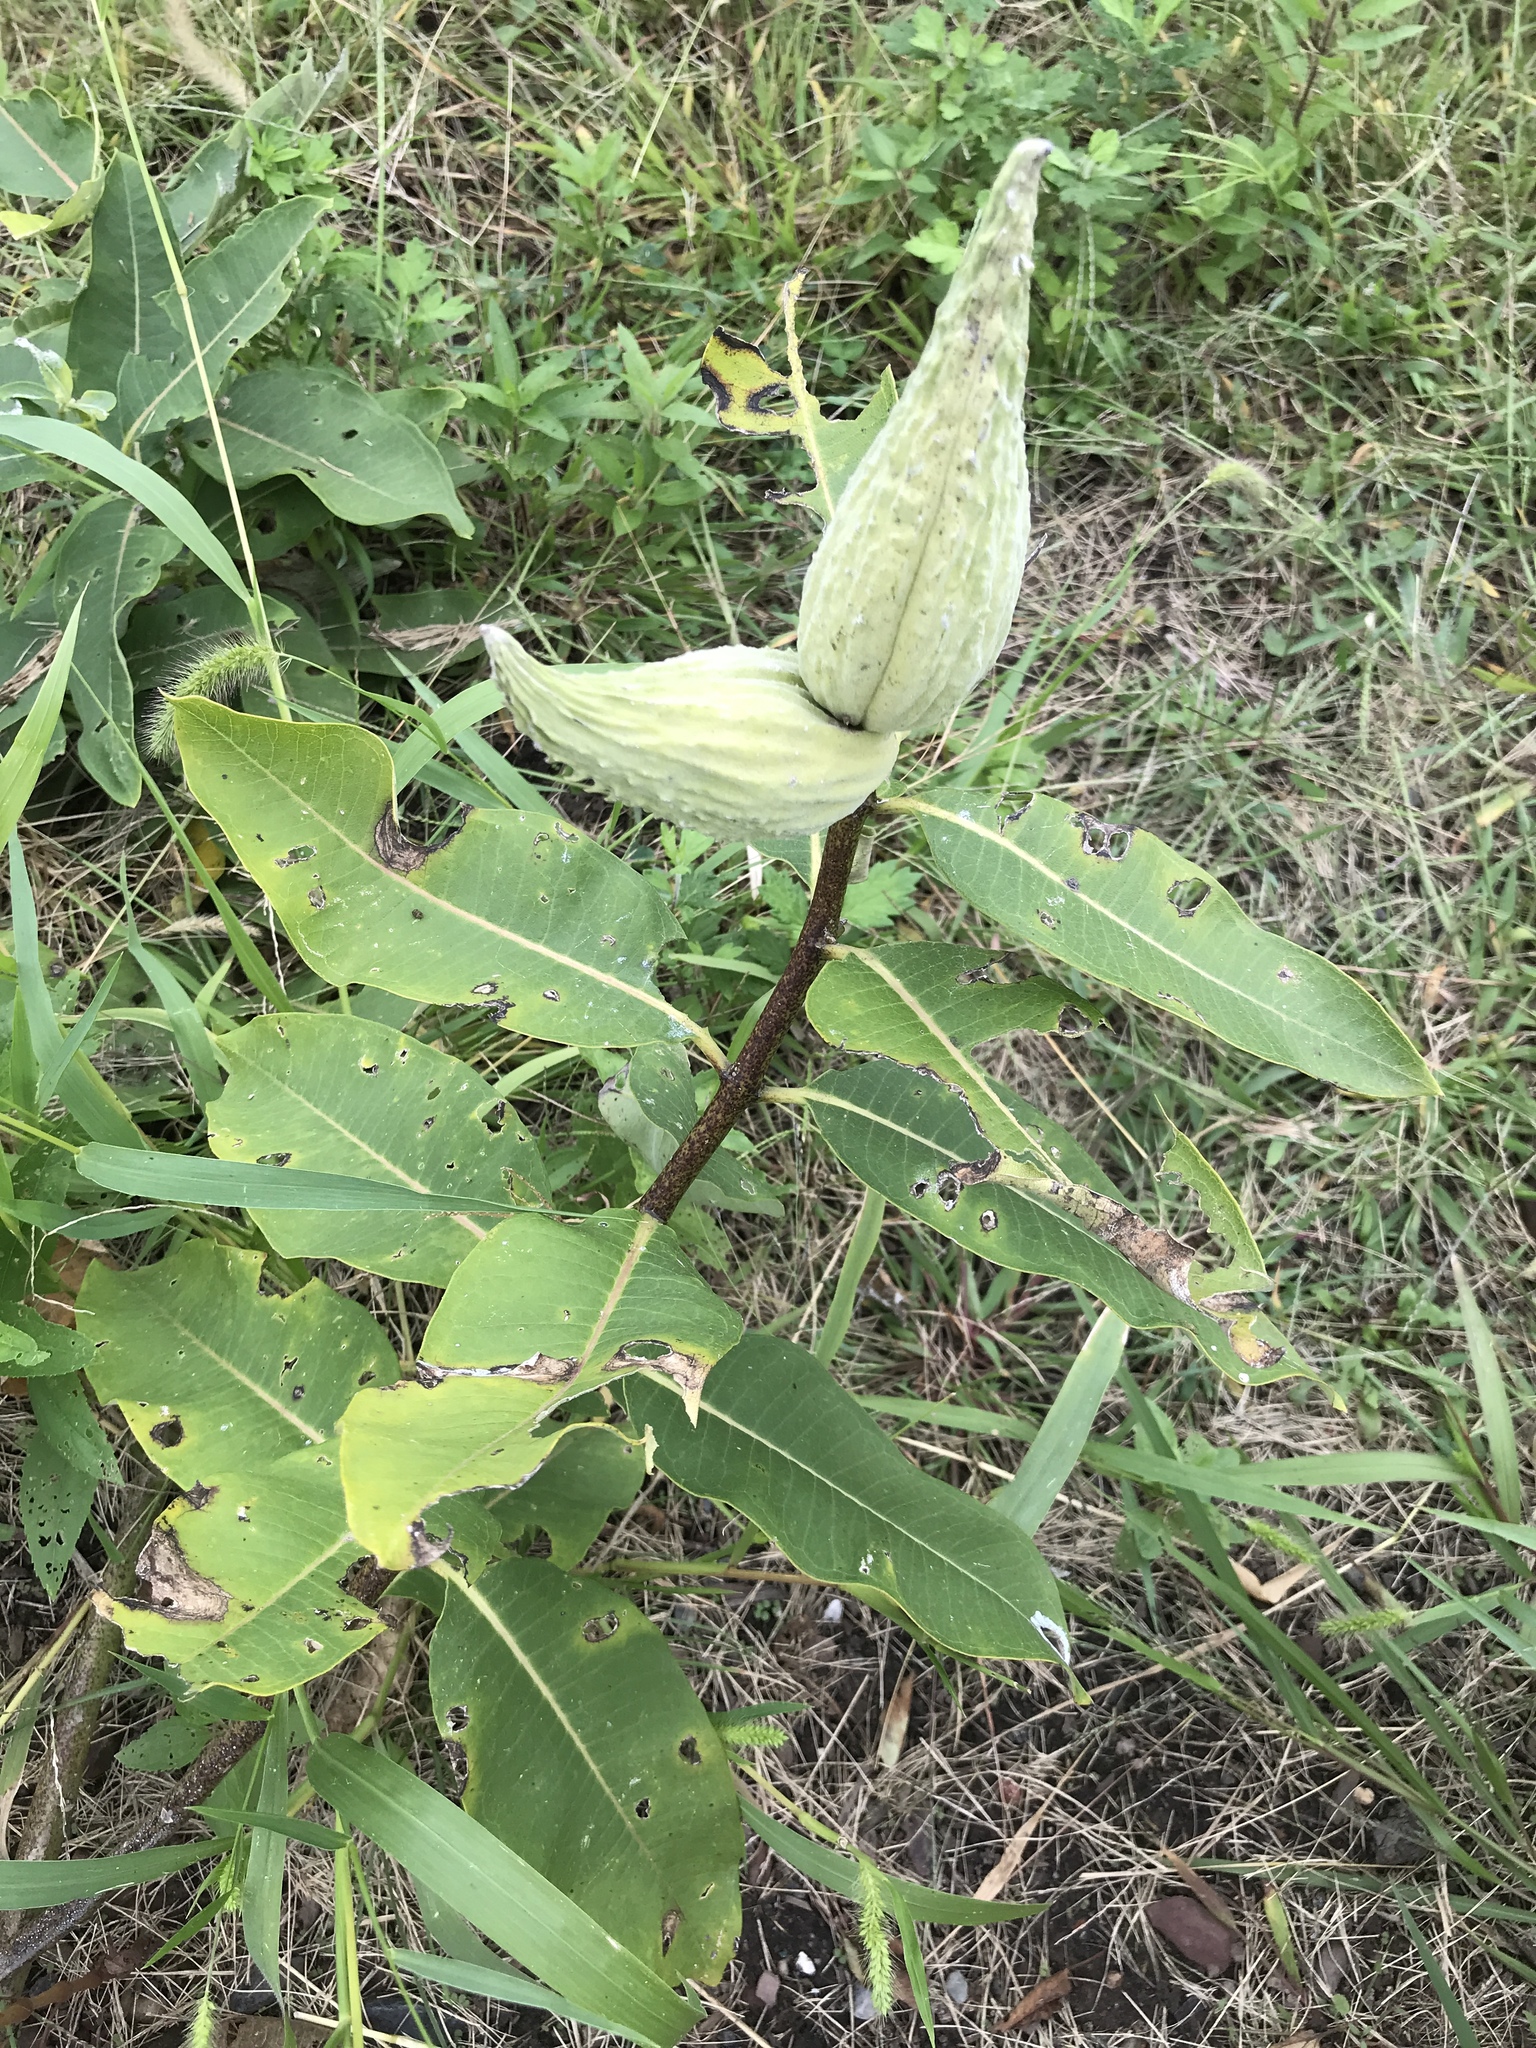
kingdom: Plantae
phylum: Tracheophyta
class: Magnoliopsida
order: Gentianales
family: Apocynaceae
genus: Asclepias
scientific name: Asclepias syriaca
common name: Common milkweed
